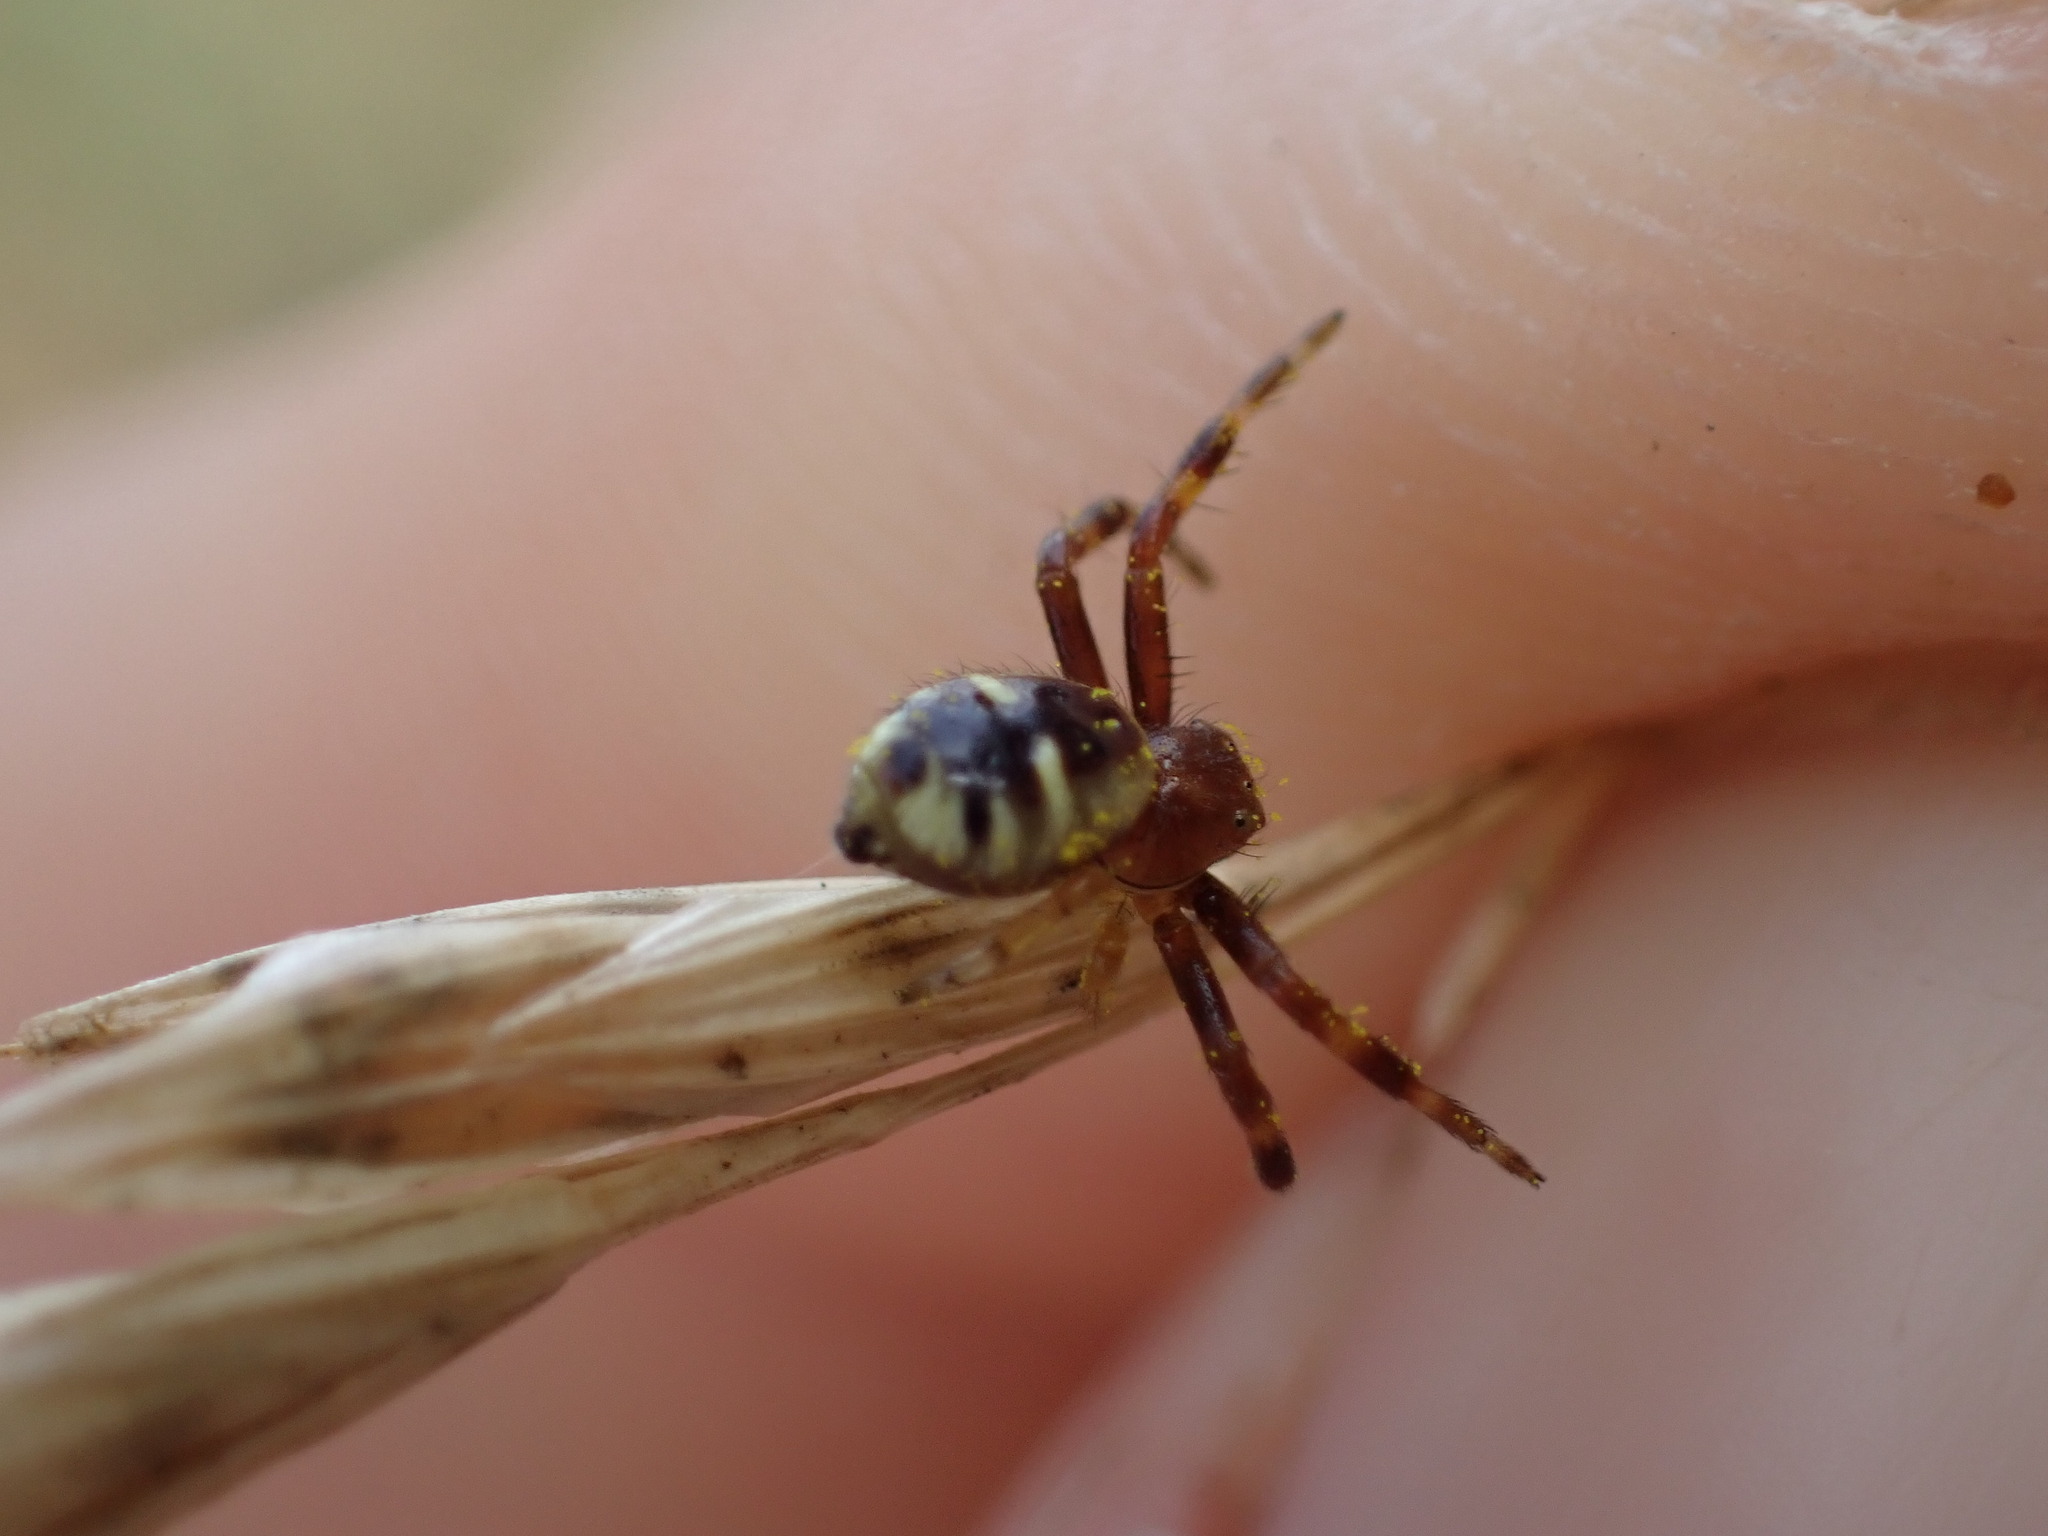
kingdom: Animalia
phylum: Arthropoda
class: Arachnida
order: Araneae
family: Thomisidae
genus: Synema
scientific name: Synema globosum
